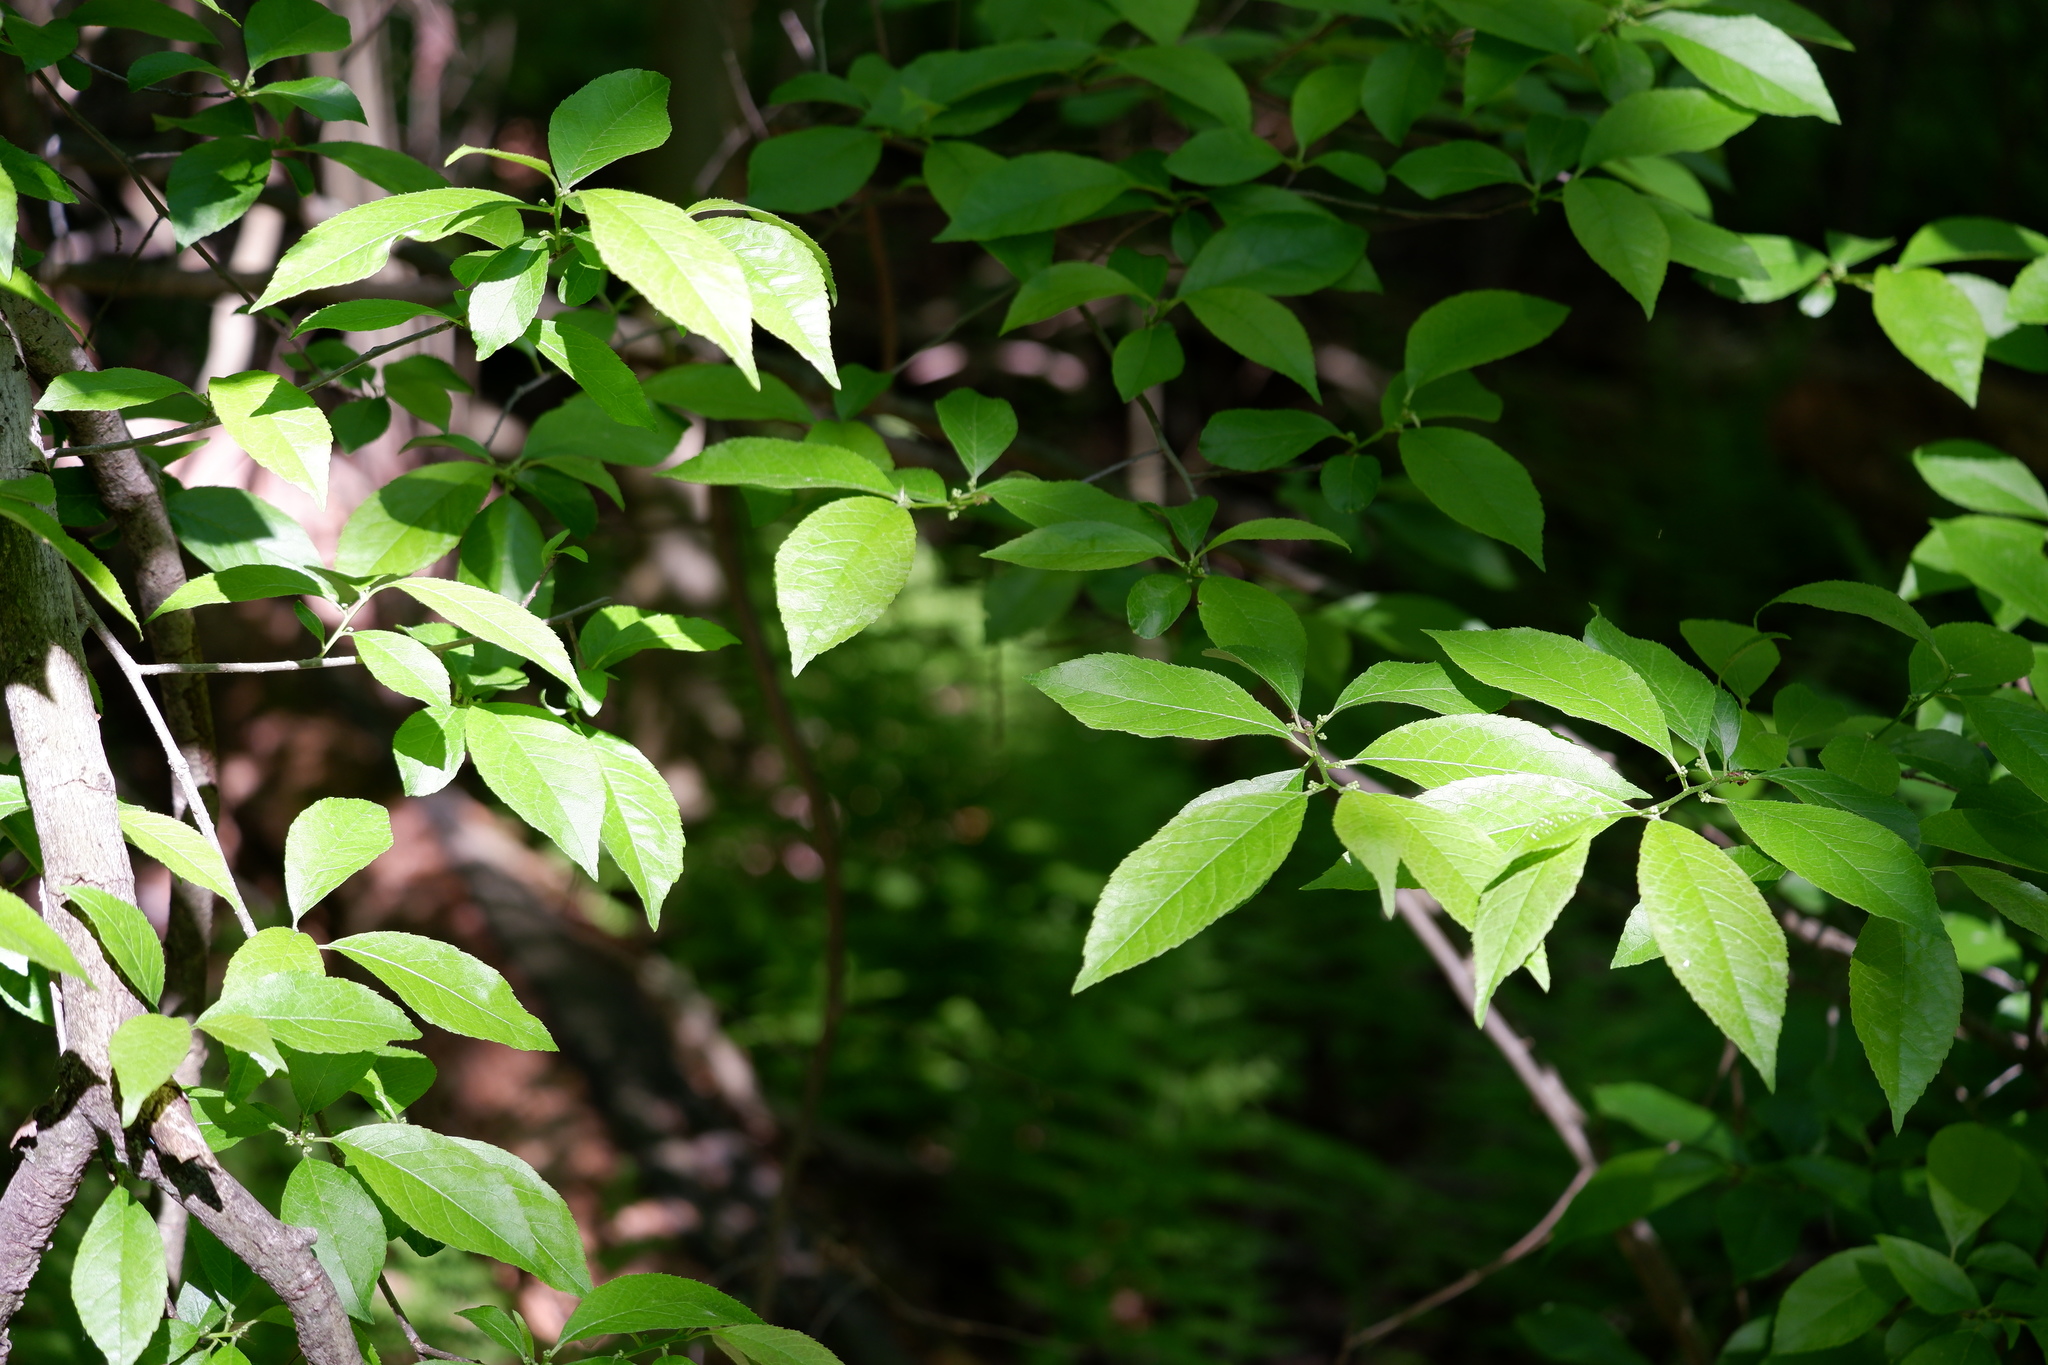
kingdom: Plantae
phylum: Tracheophyta
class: Magnoliopsida
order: Aquifoliales
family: Aquifoliaceae
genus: Ilex
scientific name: Ilex verticillata
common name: Virginia winterberry
